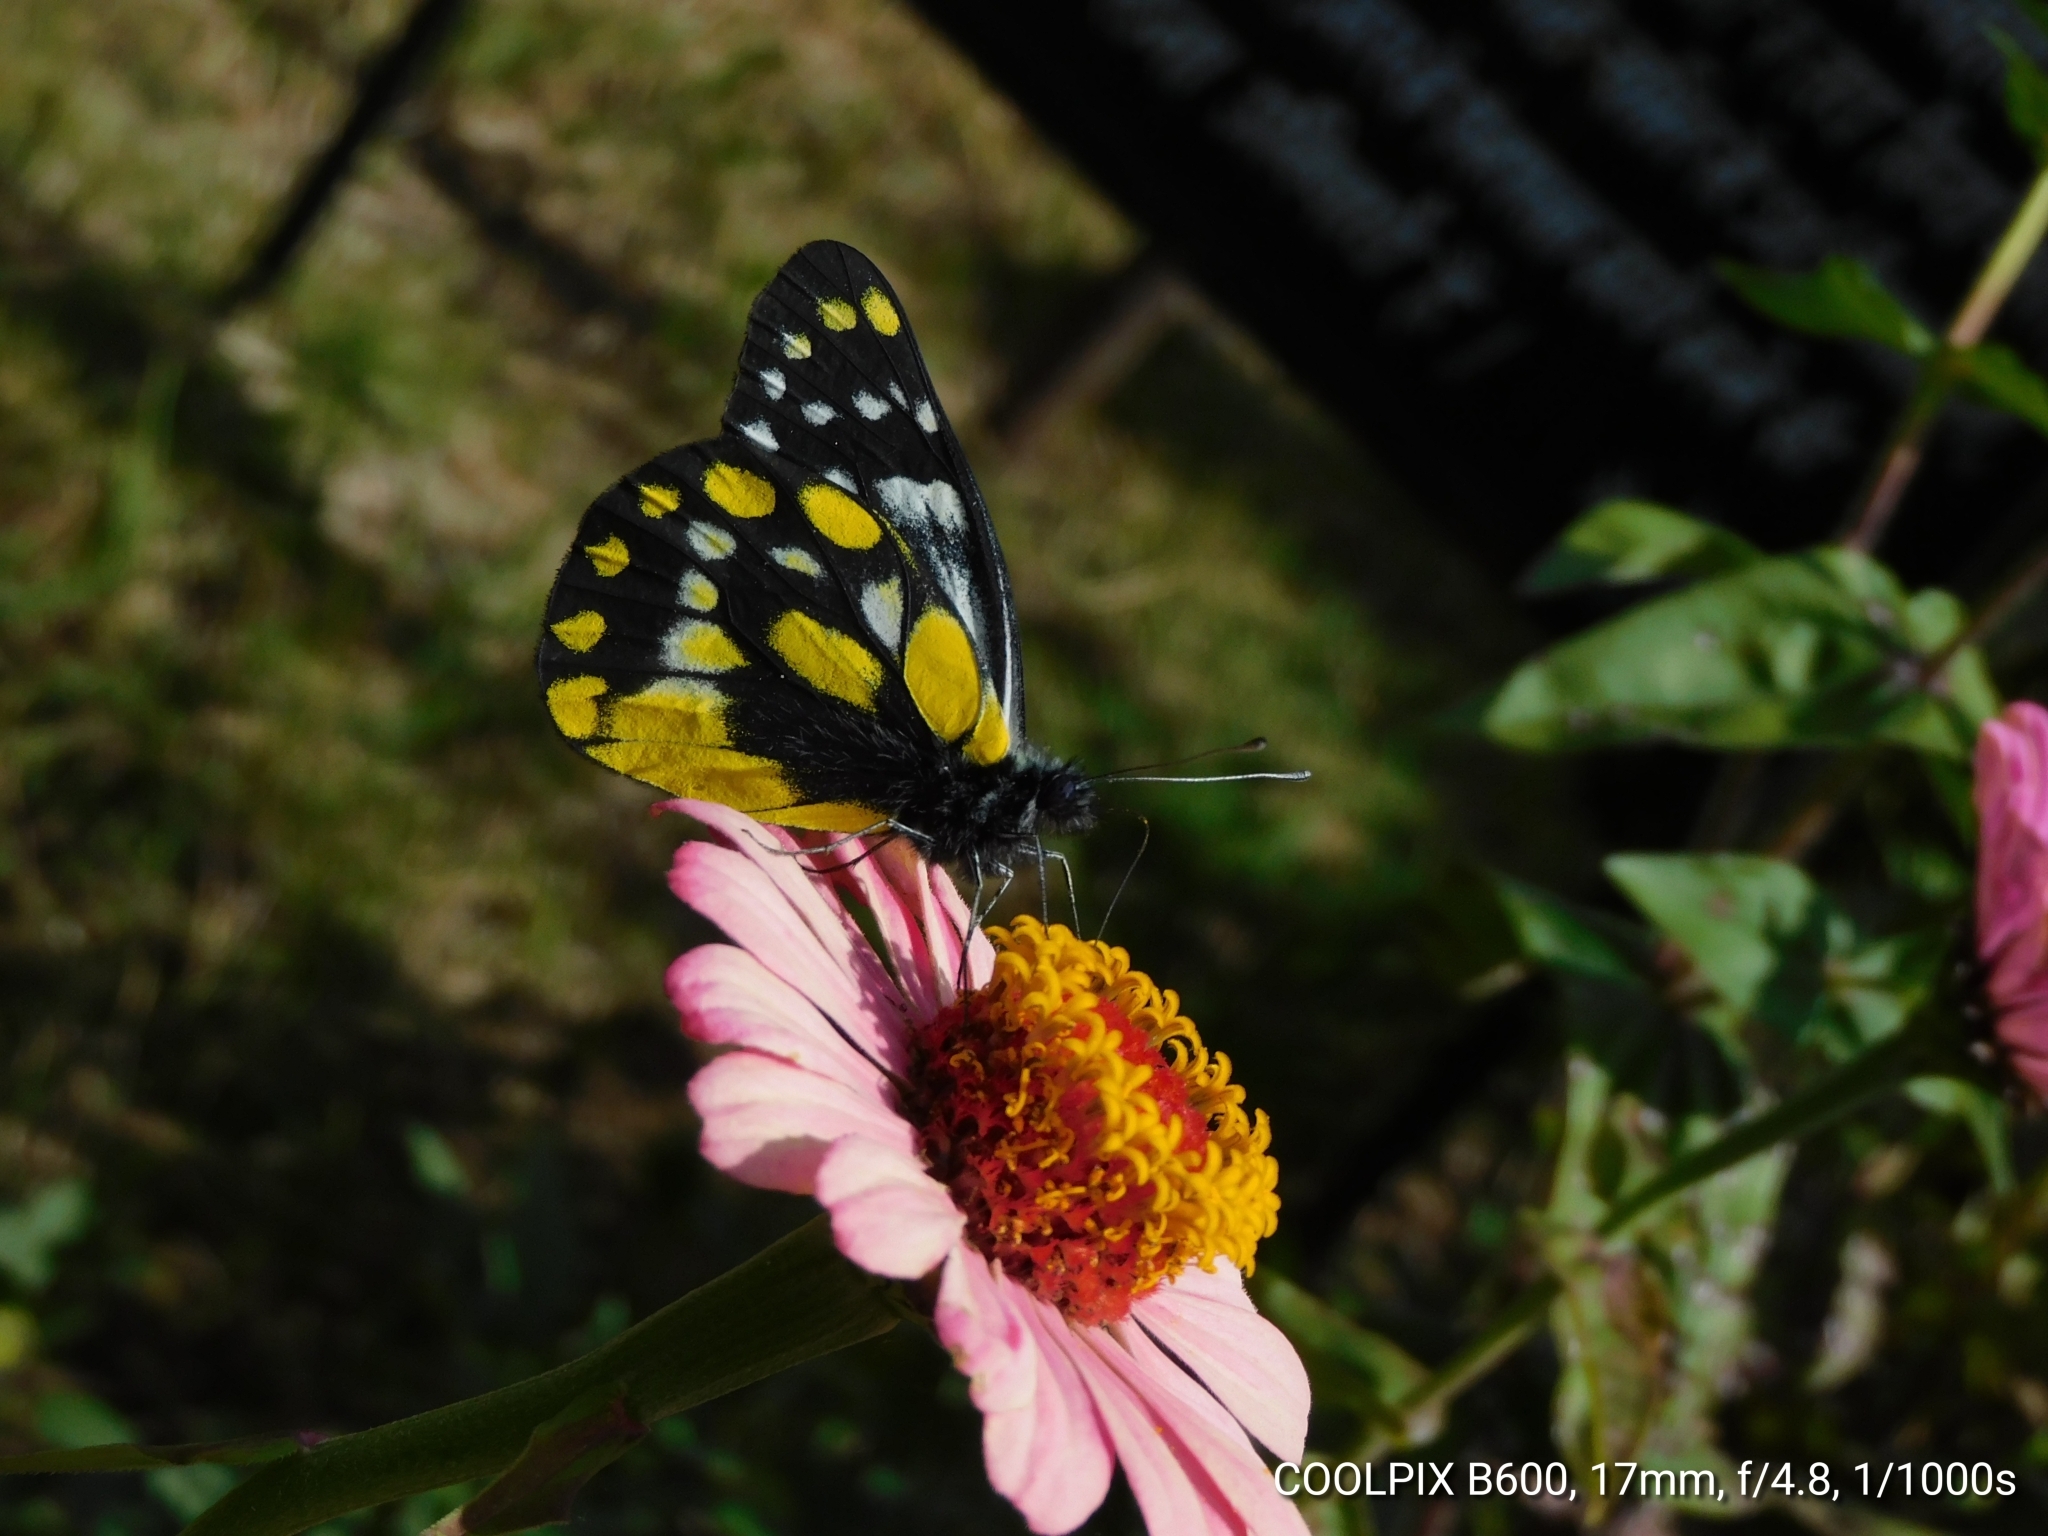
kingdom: Animalia
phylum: Arthropoda
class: Insecta
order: Lepidoptera
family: Pieridae
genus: Delias
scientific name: Delias belladonna
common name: Hill jezebel
